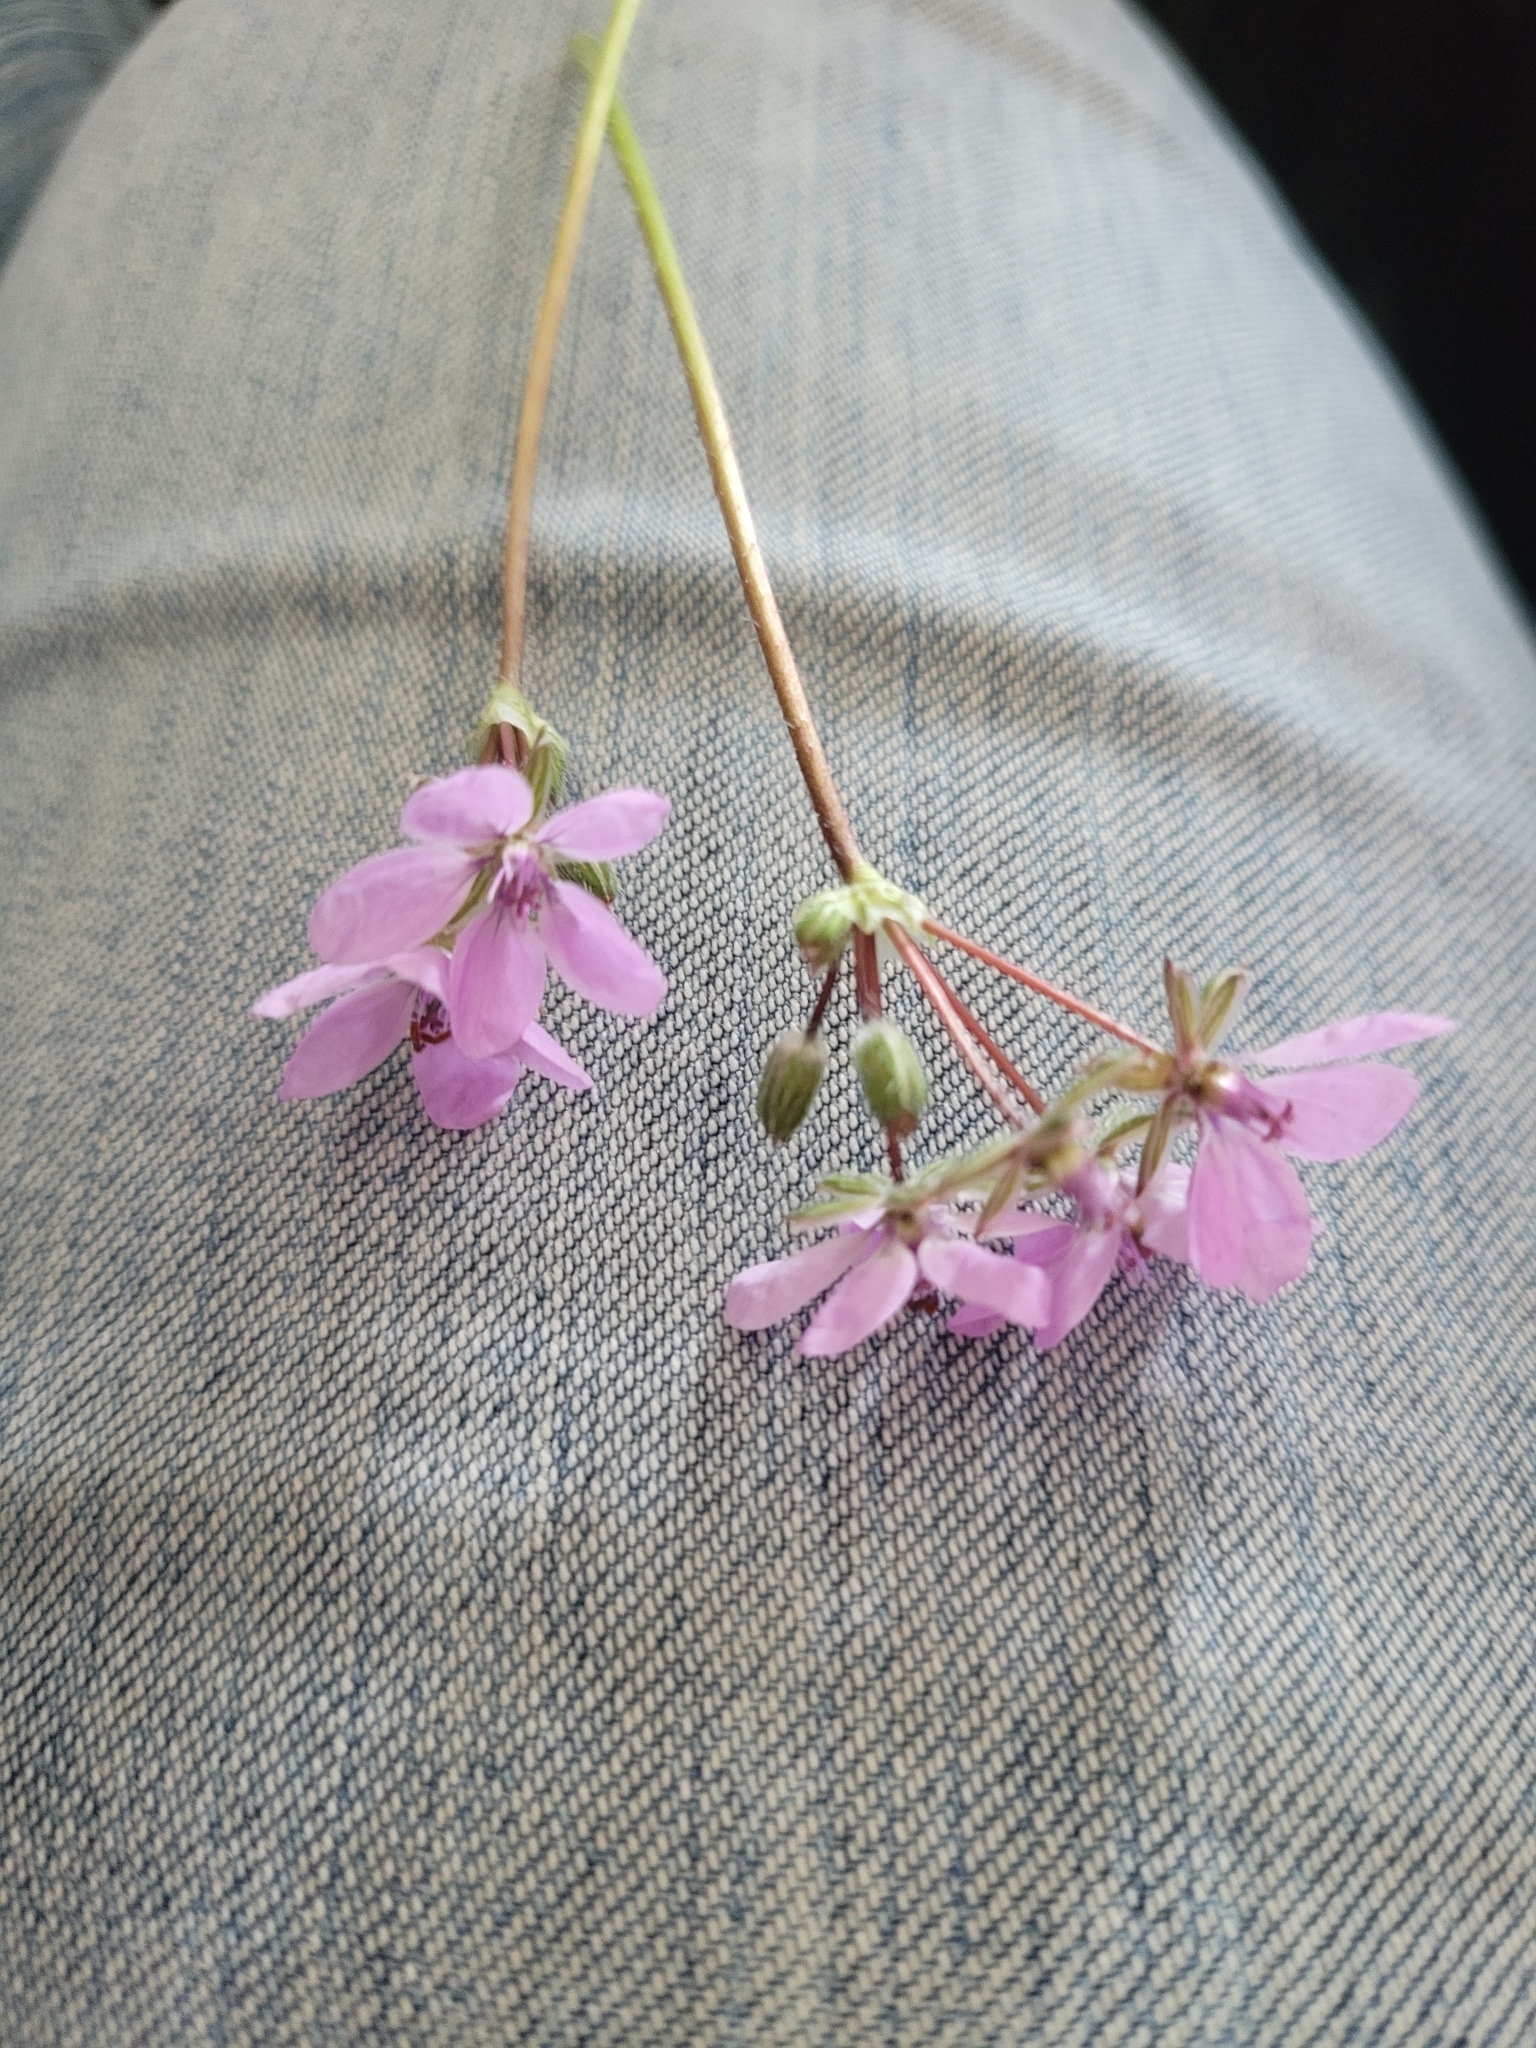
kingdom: Plantae
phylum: Tracheophyta
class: Magnoliopsida
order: Geraniales
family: Geraniaceae
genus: Erodium
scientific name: Erodium cicutarium
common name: Common stork's-bill
